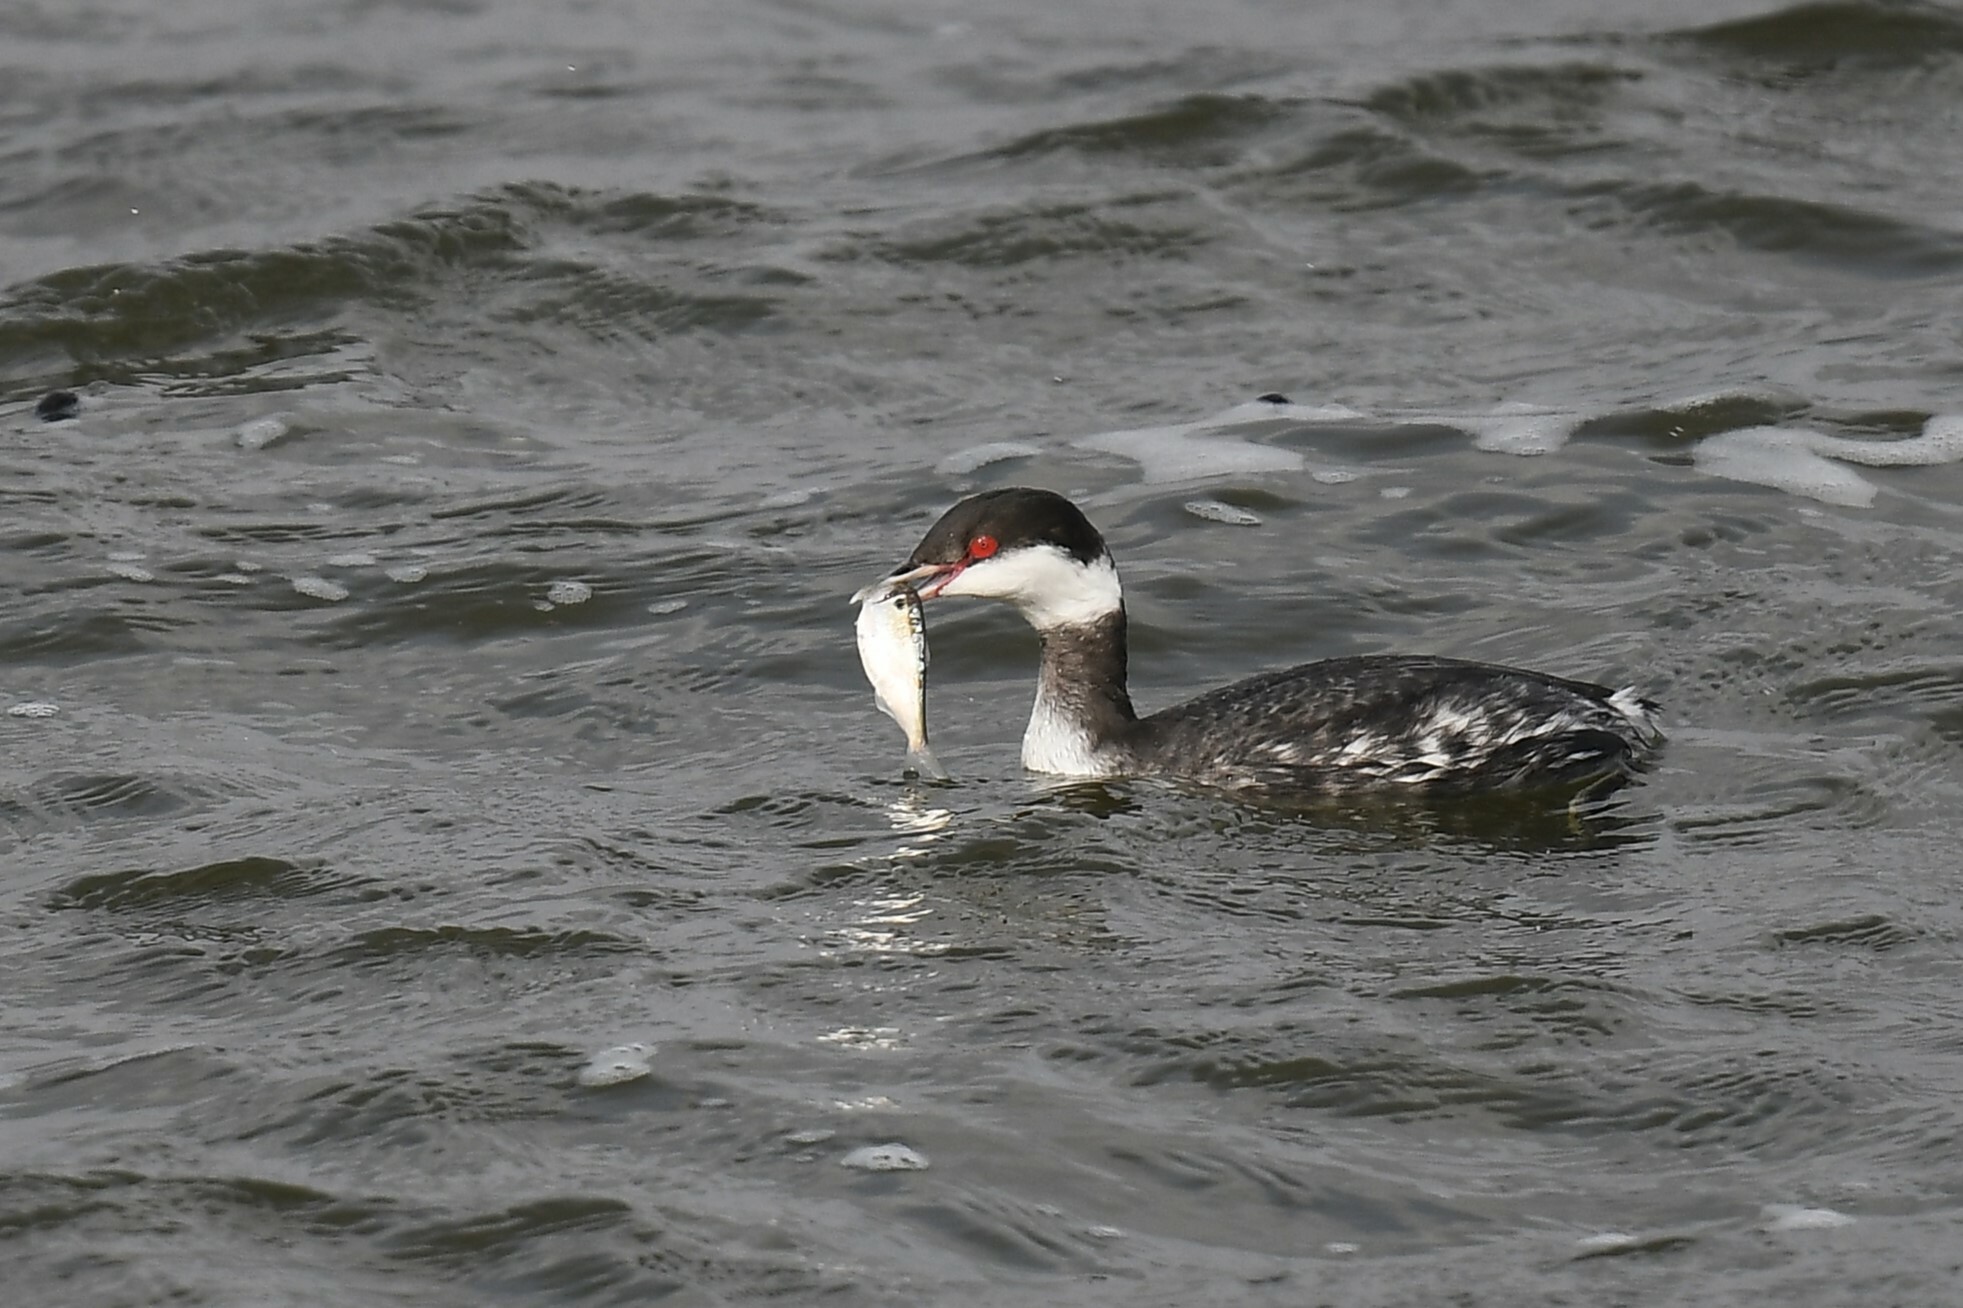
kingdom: Animalia
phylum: Chordata
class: Aves
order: Podicipediformes
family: Podicipedidae
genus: Podiceps
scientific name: Podiceps auritus
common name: Horned grebe
